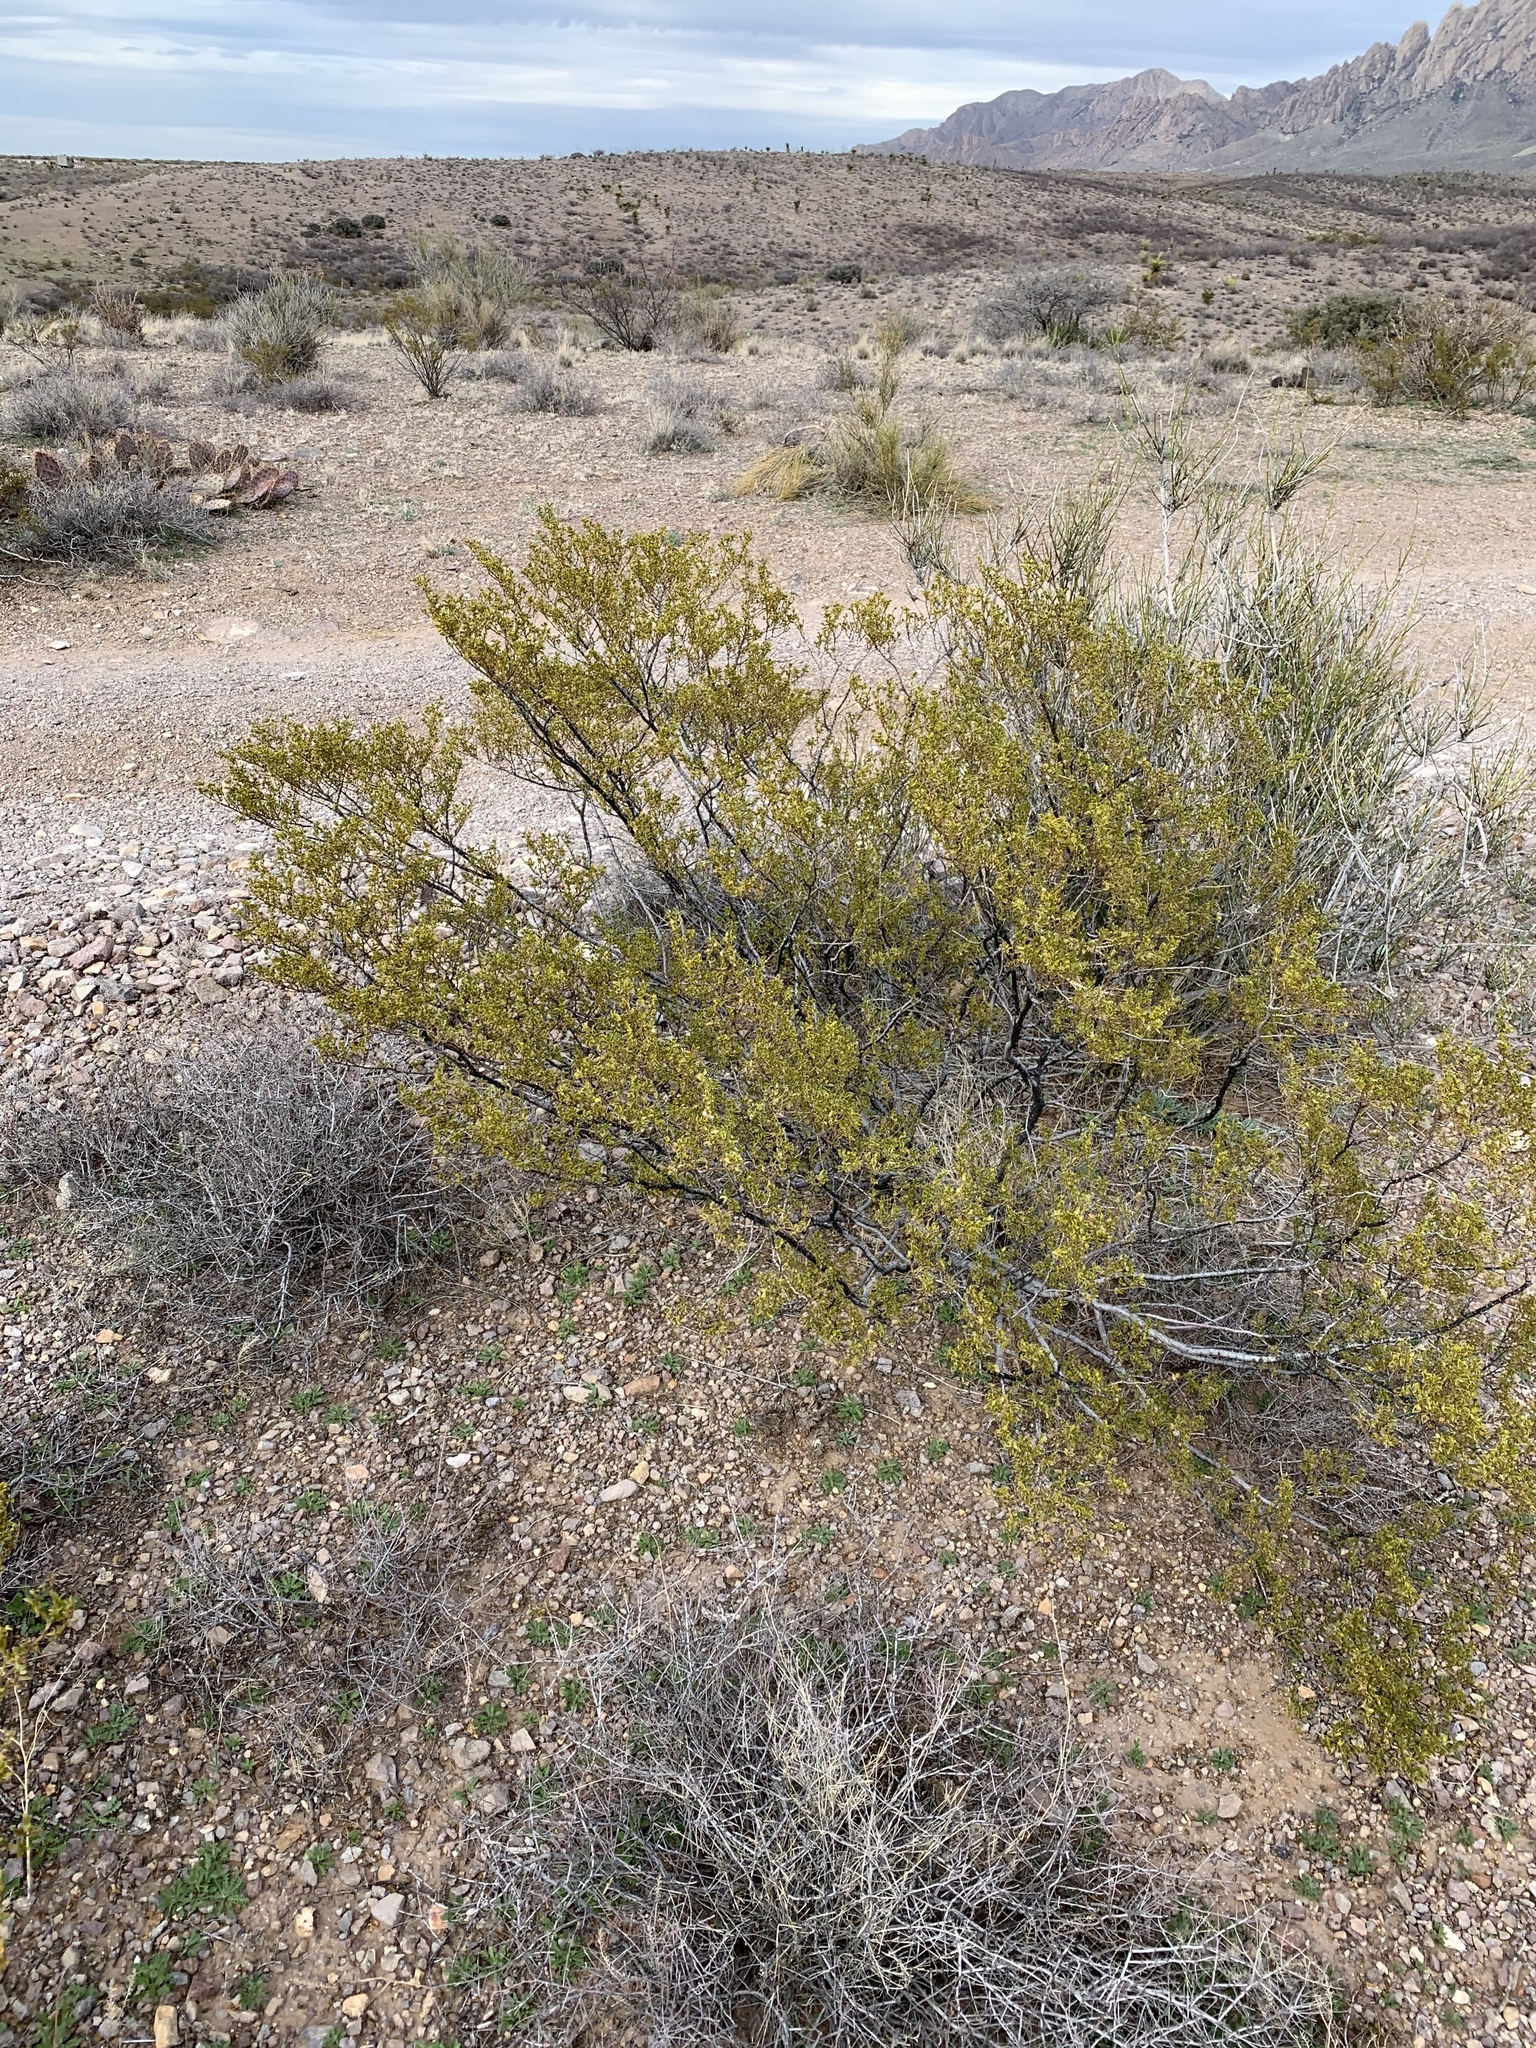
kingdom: Plantae
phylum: Tracheophyta
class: Magnoliopsida
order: Zygophyllales
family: Zygophyllaceae
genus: Larrea
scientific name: Larrea tridentata
